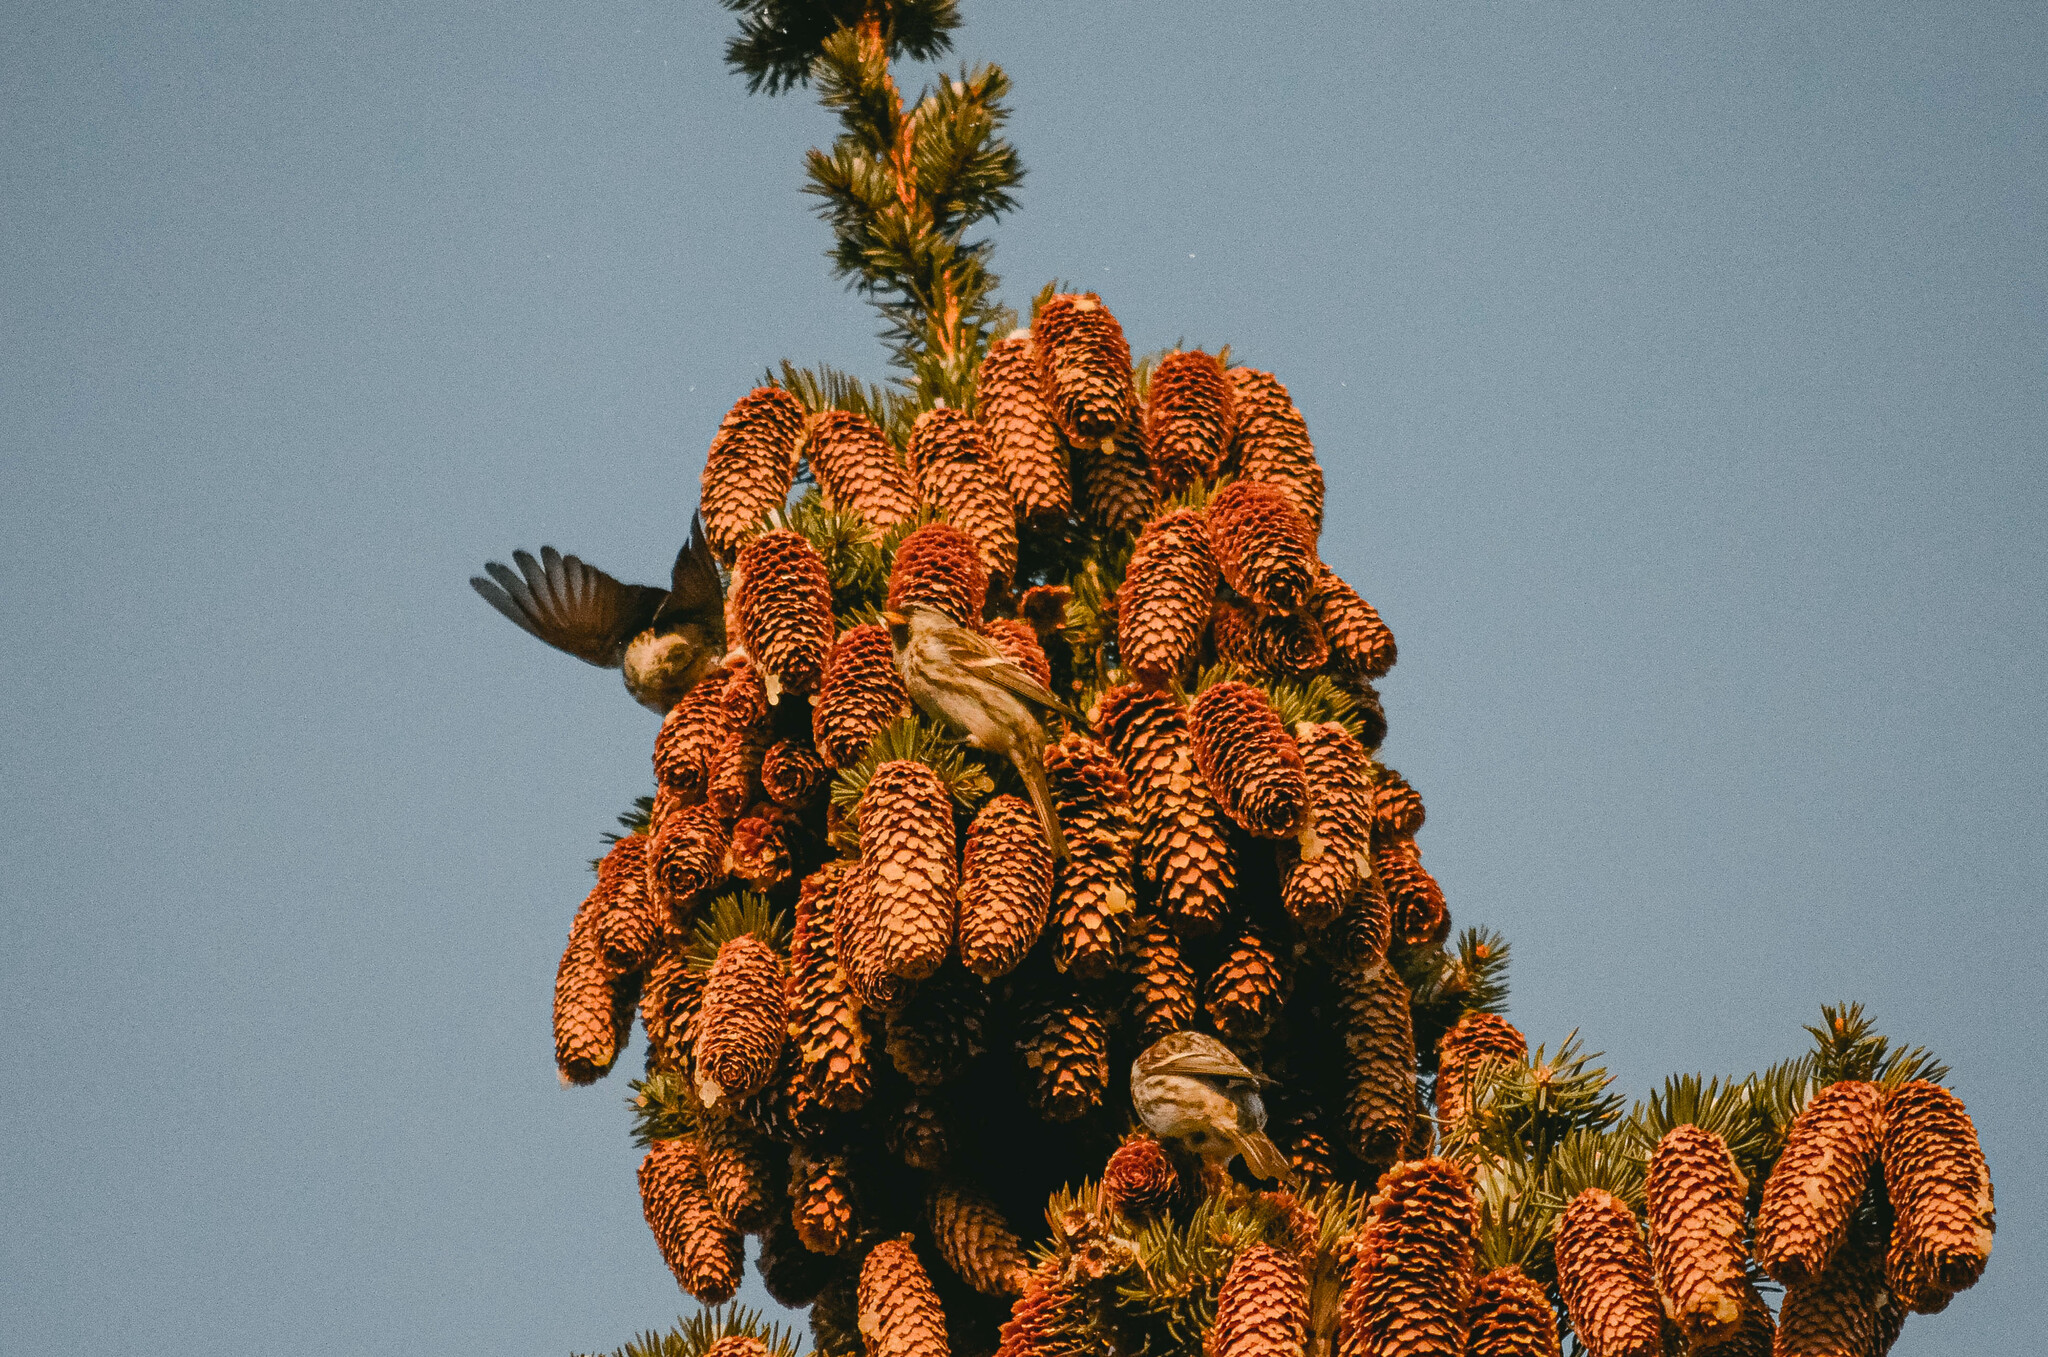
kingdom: Animalia
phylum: Chordata
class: Aves
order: Passeriformes
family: Fringillidae
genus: Acanthis
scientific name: Acanthis flammea
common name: Common redpoll
